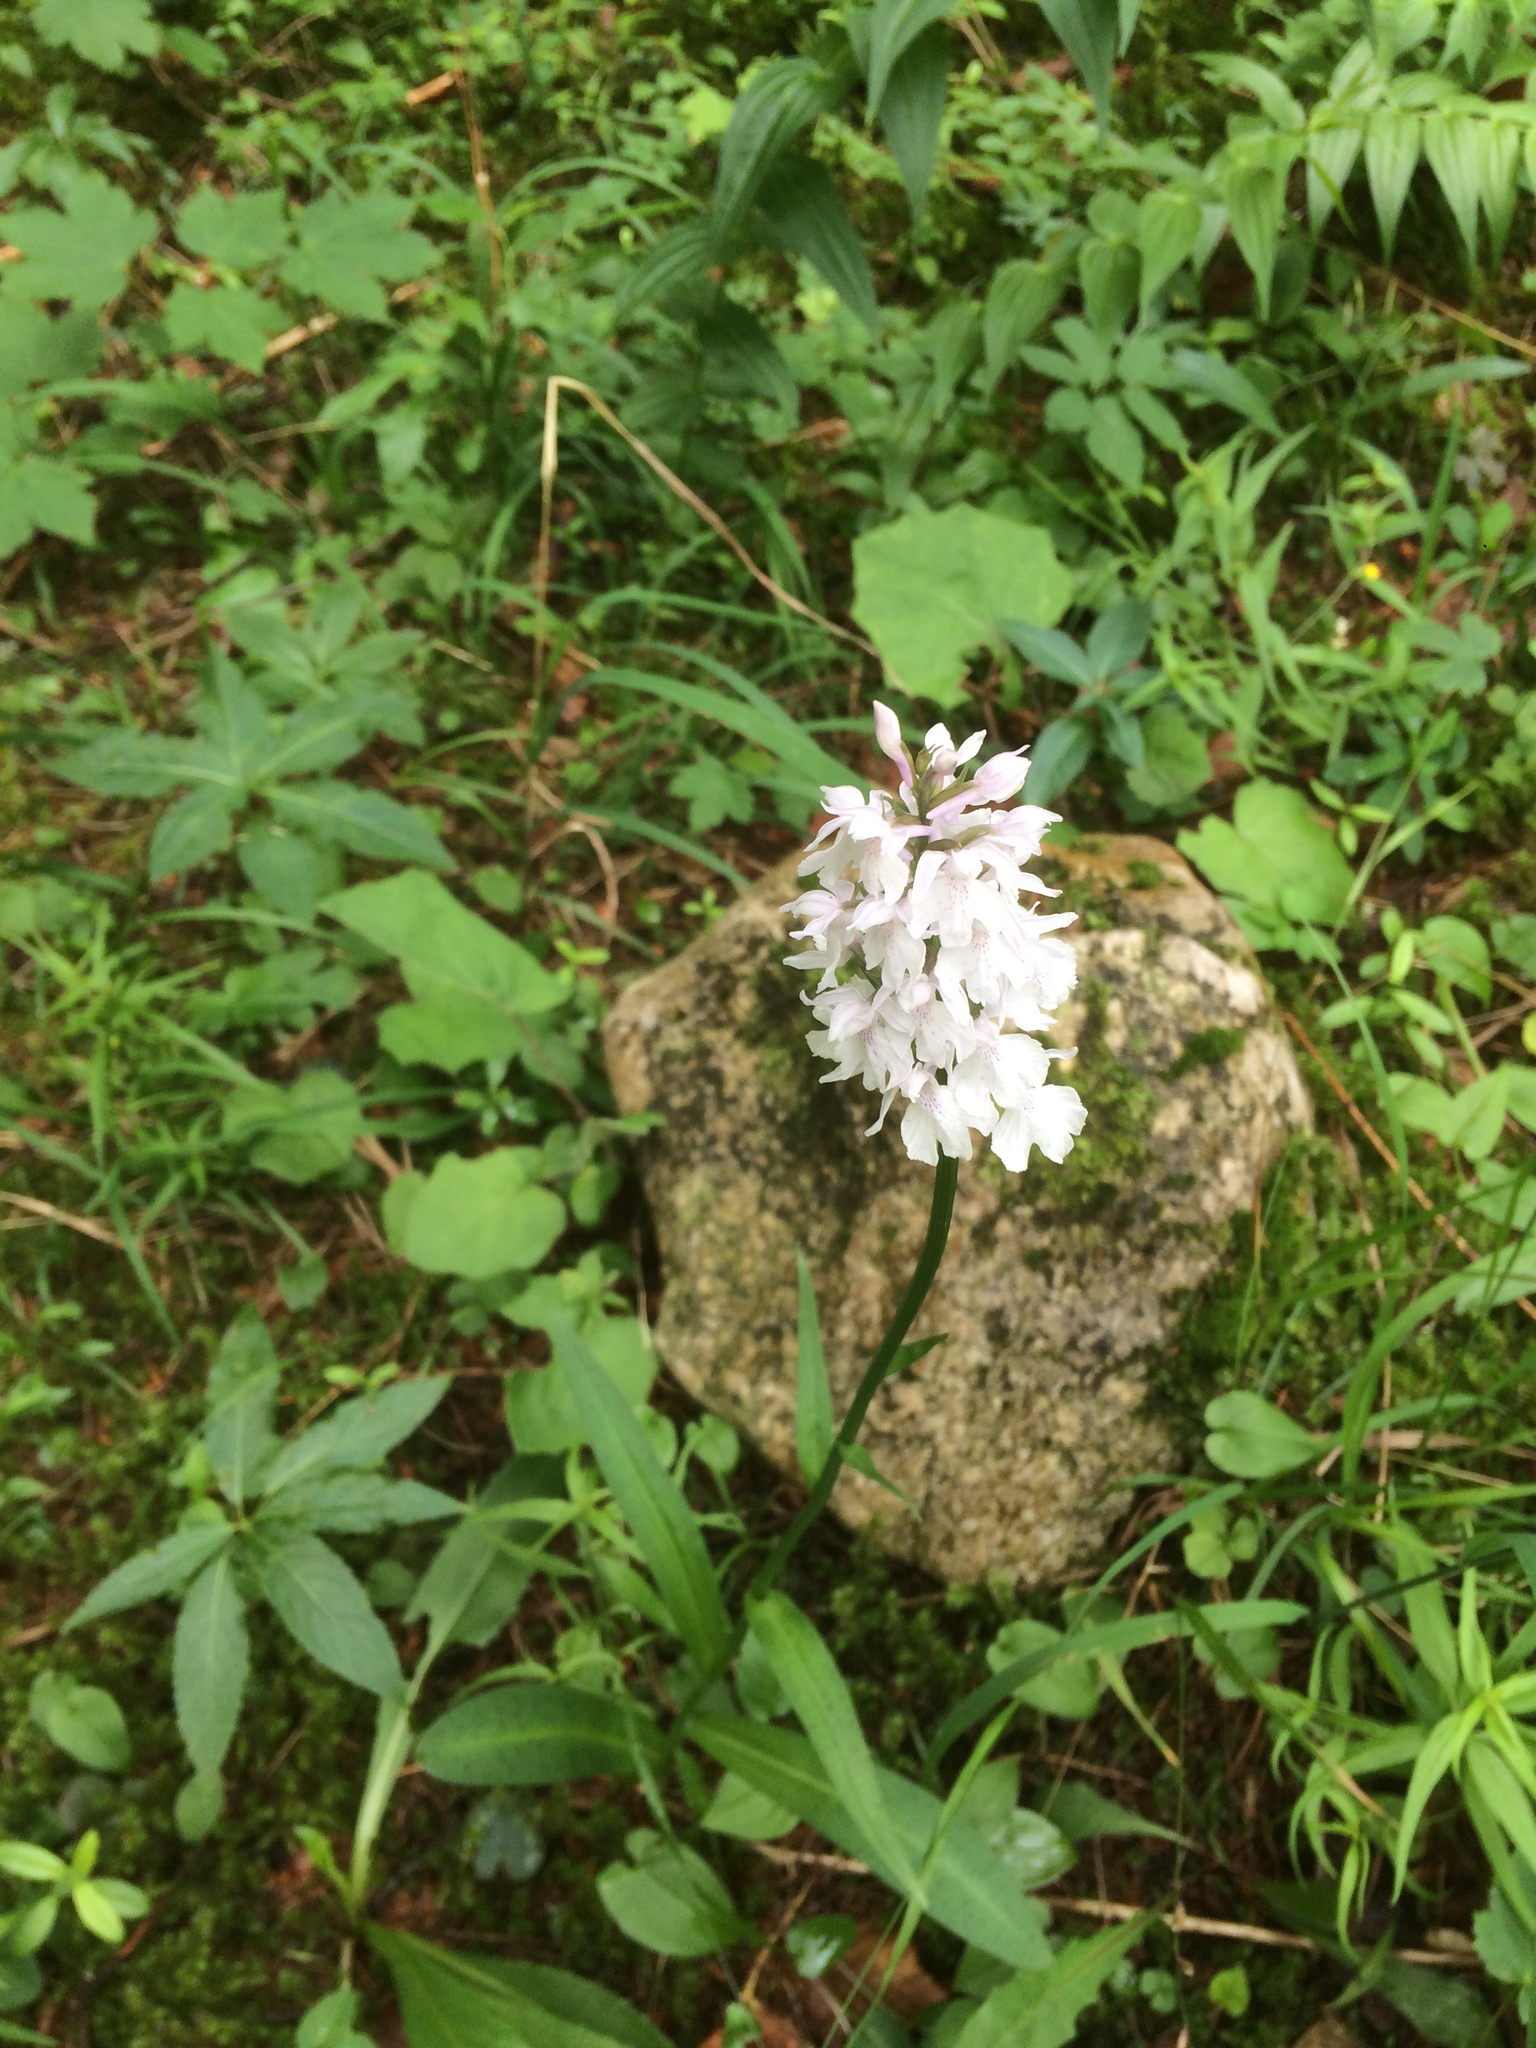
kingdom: Plantae
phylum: Tracheophyta
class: Liliopsida
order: Asparagales
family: Orchidaceae
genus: Dactylorhiza
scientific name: Dactylorhiza maculata
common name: Heath spotted-orchid
